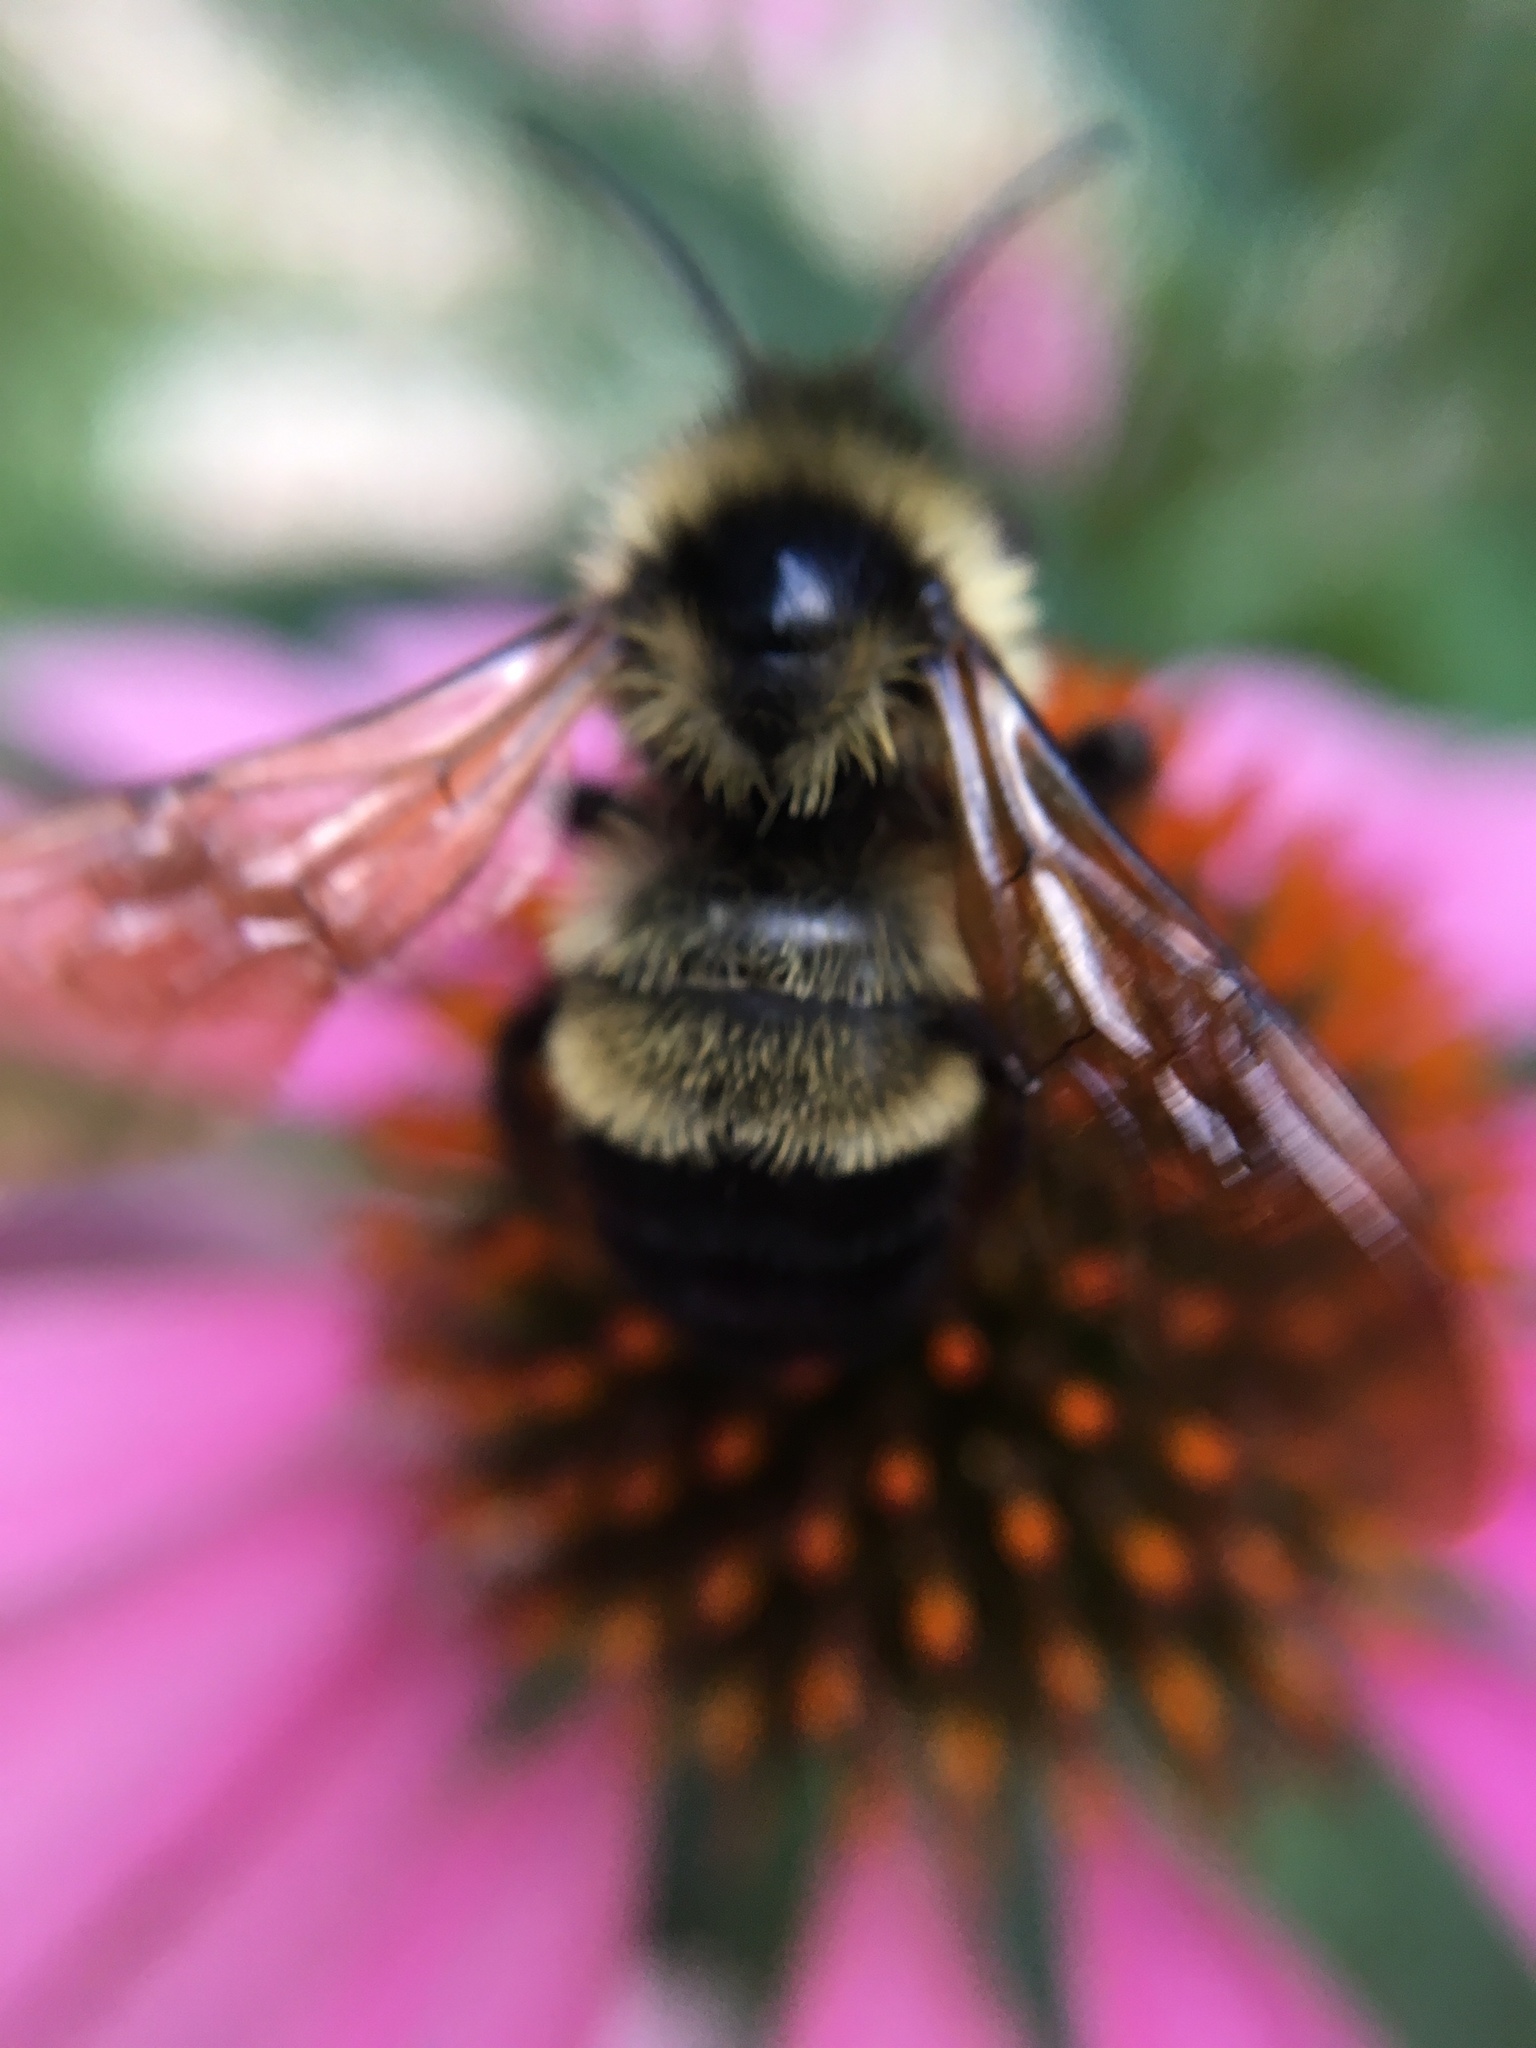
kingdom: Animalia
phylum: Arthropoda
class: Insecta
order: Hymenoptera
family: Apidae
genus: Bombus
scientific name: Bombus citrinus
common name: Lemon cuckoo bumble bee
